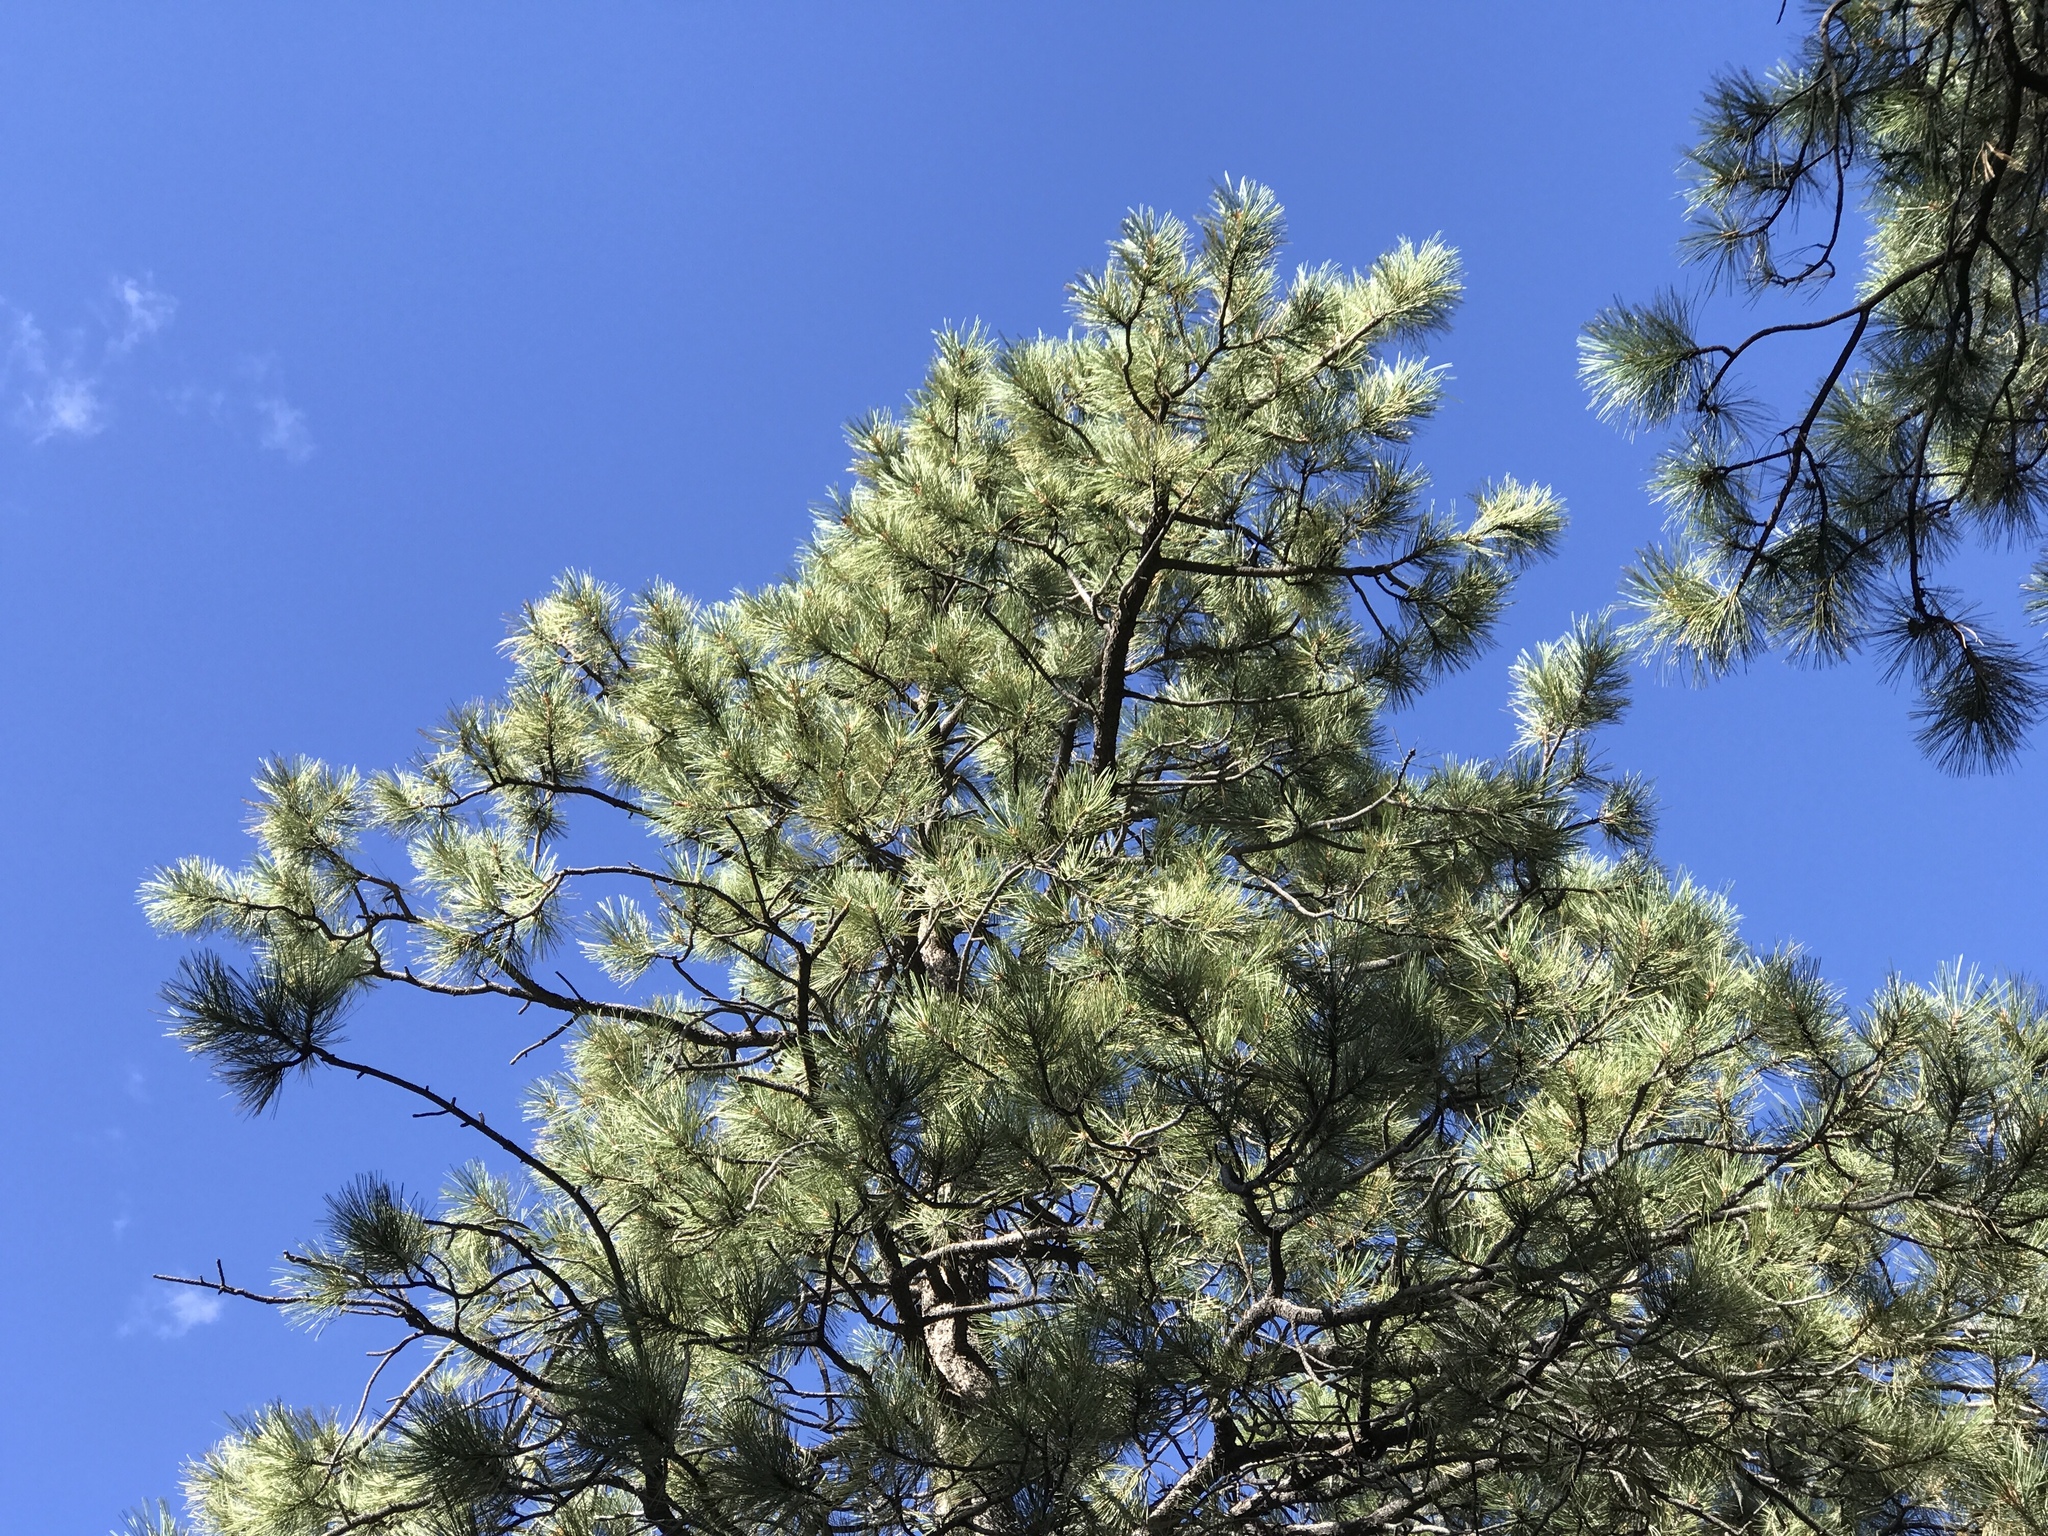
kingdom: Plantae
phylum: Tracheophyta
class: Pinopsida
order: Pinales
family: Pinaceae
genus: Pinus
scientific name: Pinus ponderosa
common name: Western yellow-pine
